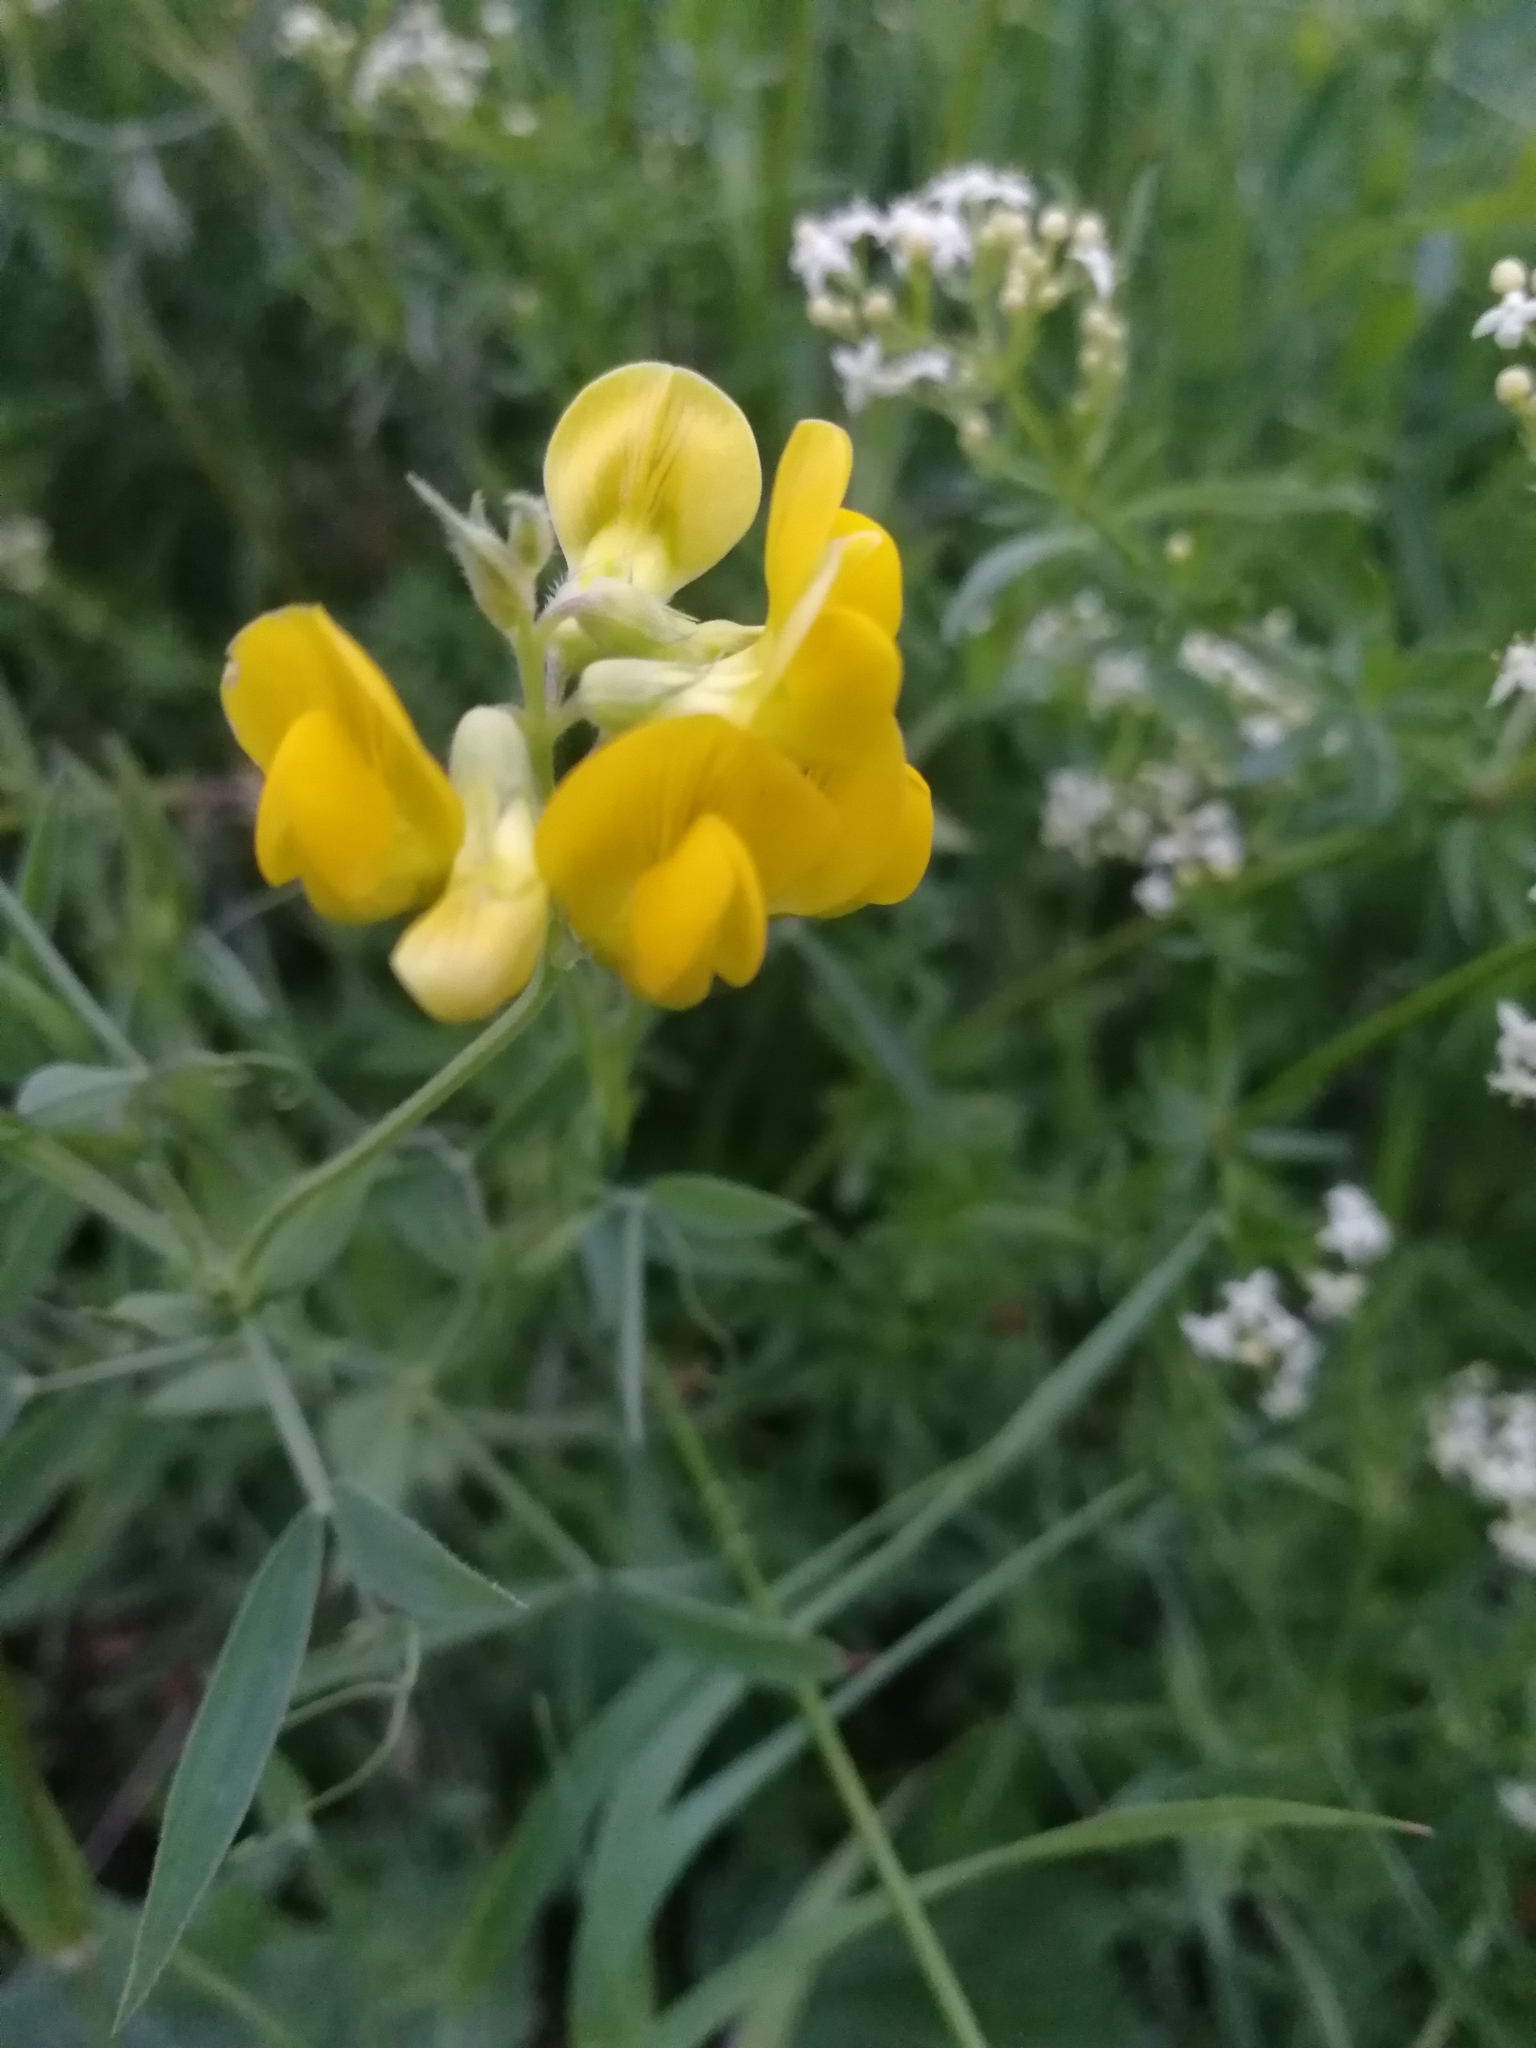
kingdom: Plantae
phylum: Tracheophyta
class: Magnoliopsida
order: Fabales
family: Fabaceae
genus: Lathyrus
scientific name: Lathyrus pratensis
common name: Meadow vetchling
